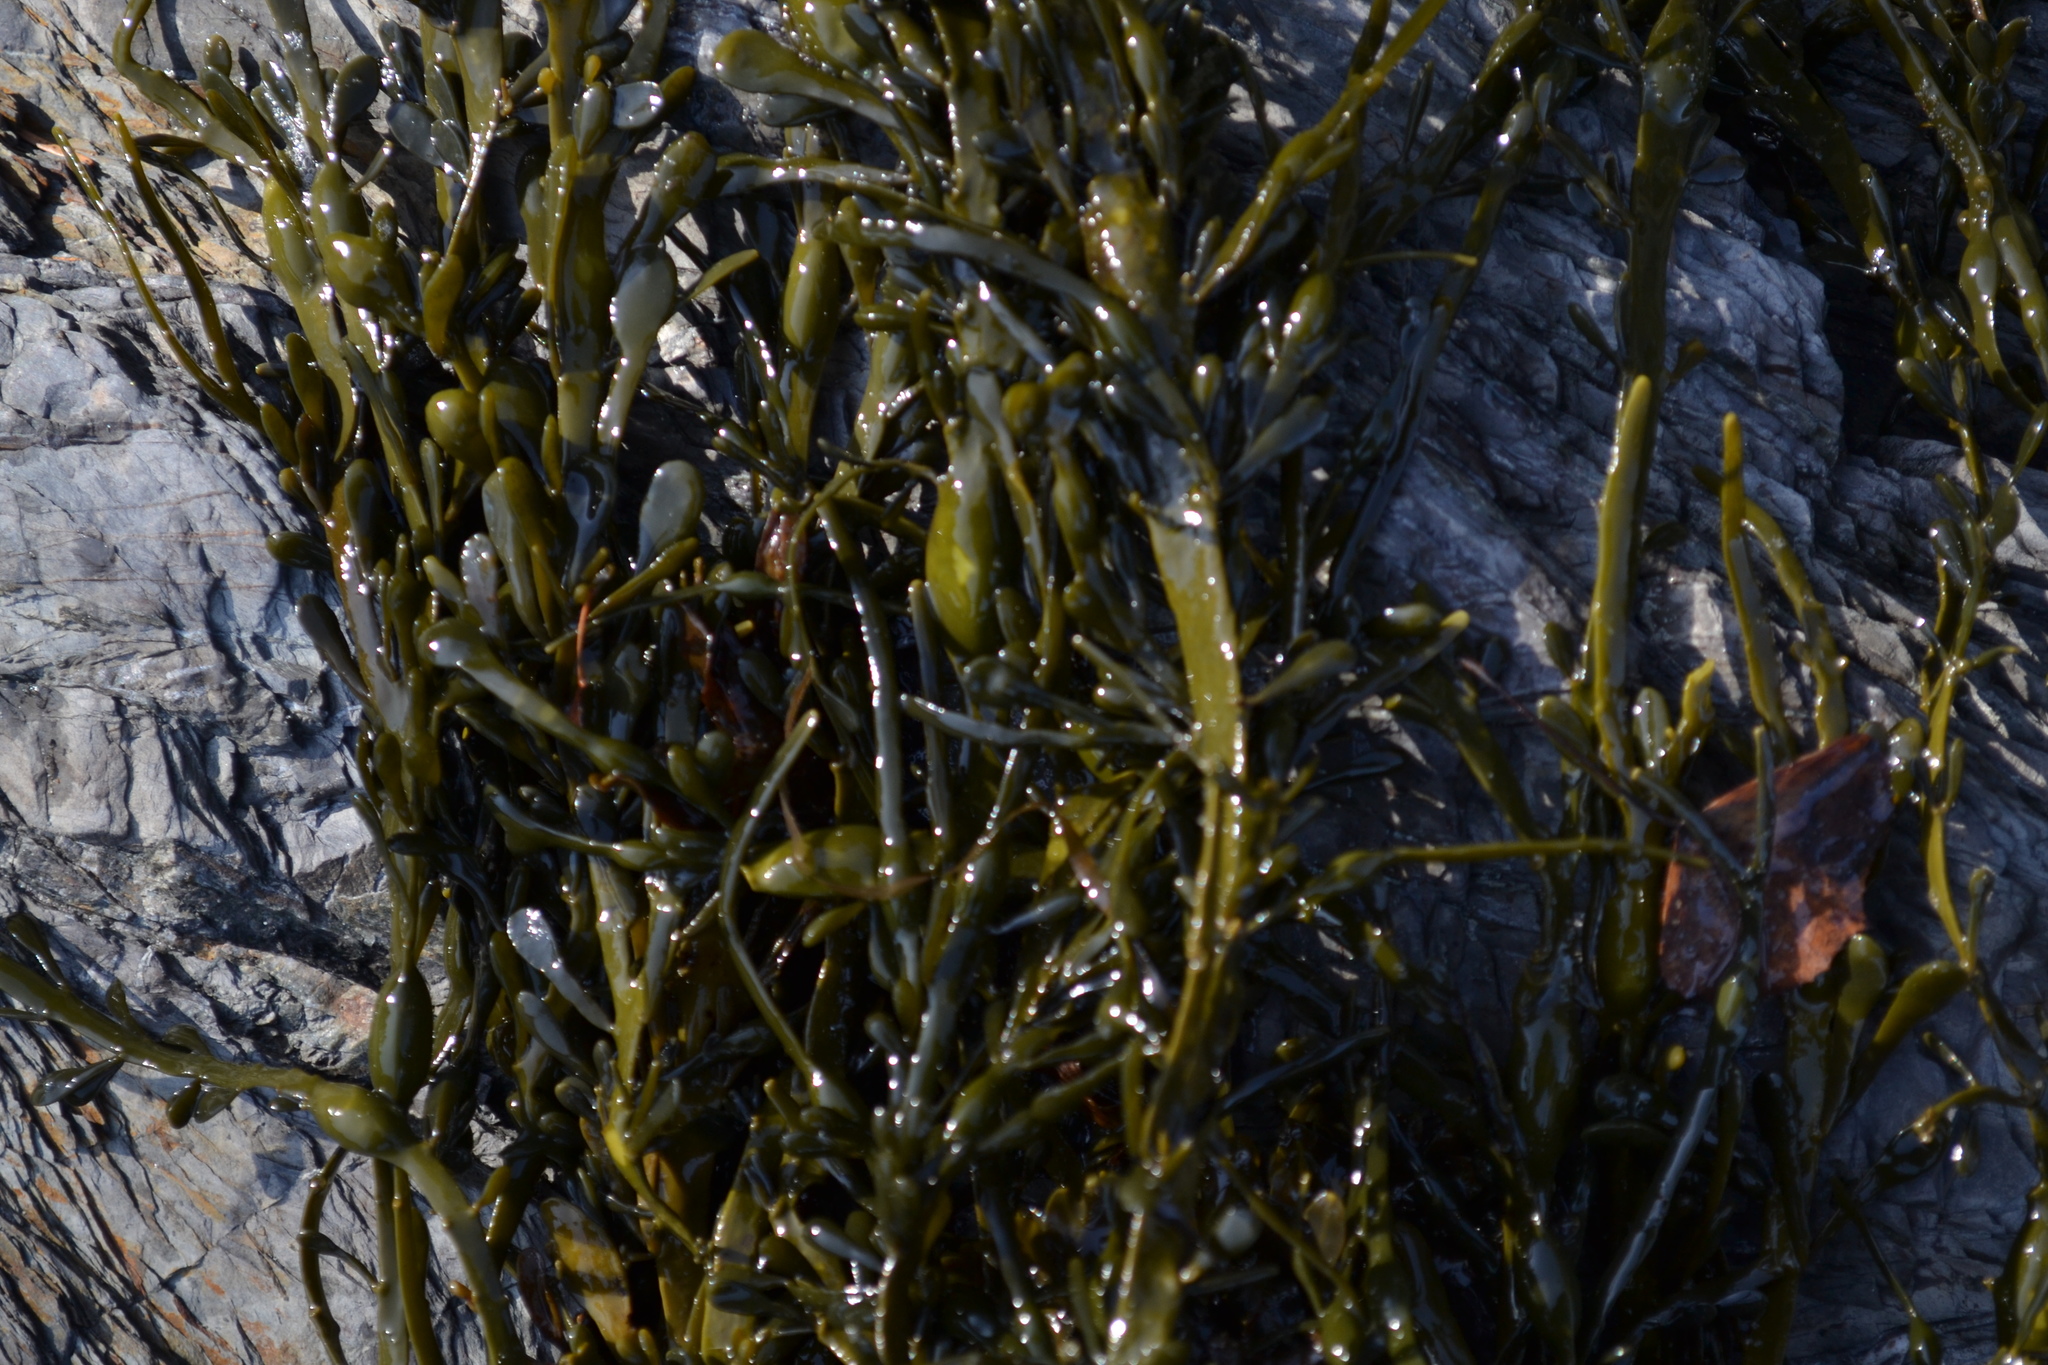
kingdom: Chromista
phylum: Ochrophyta
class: Phaeophyceae
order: Fucales
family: Fucaceae
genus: Ascophyllum
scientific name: Ascophyllum nodosum
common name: Knotted wrack
